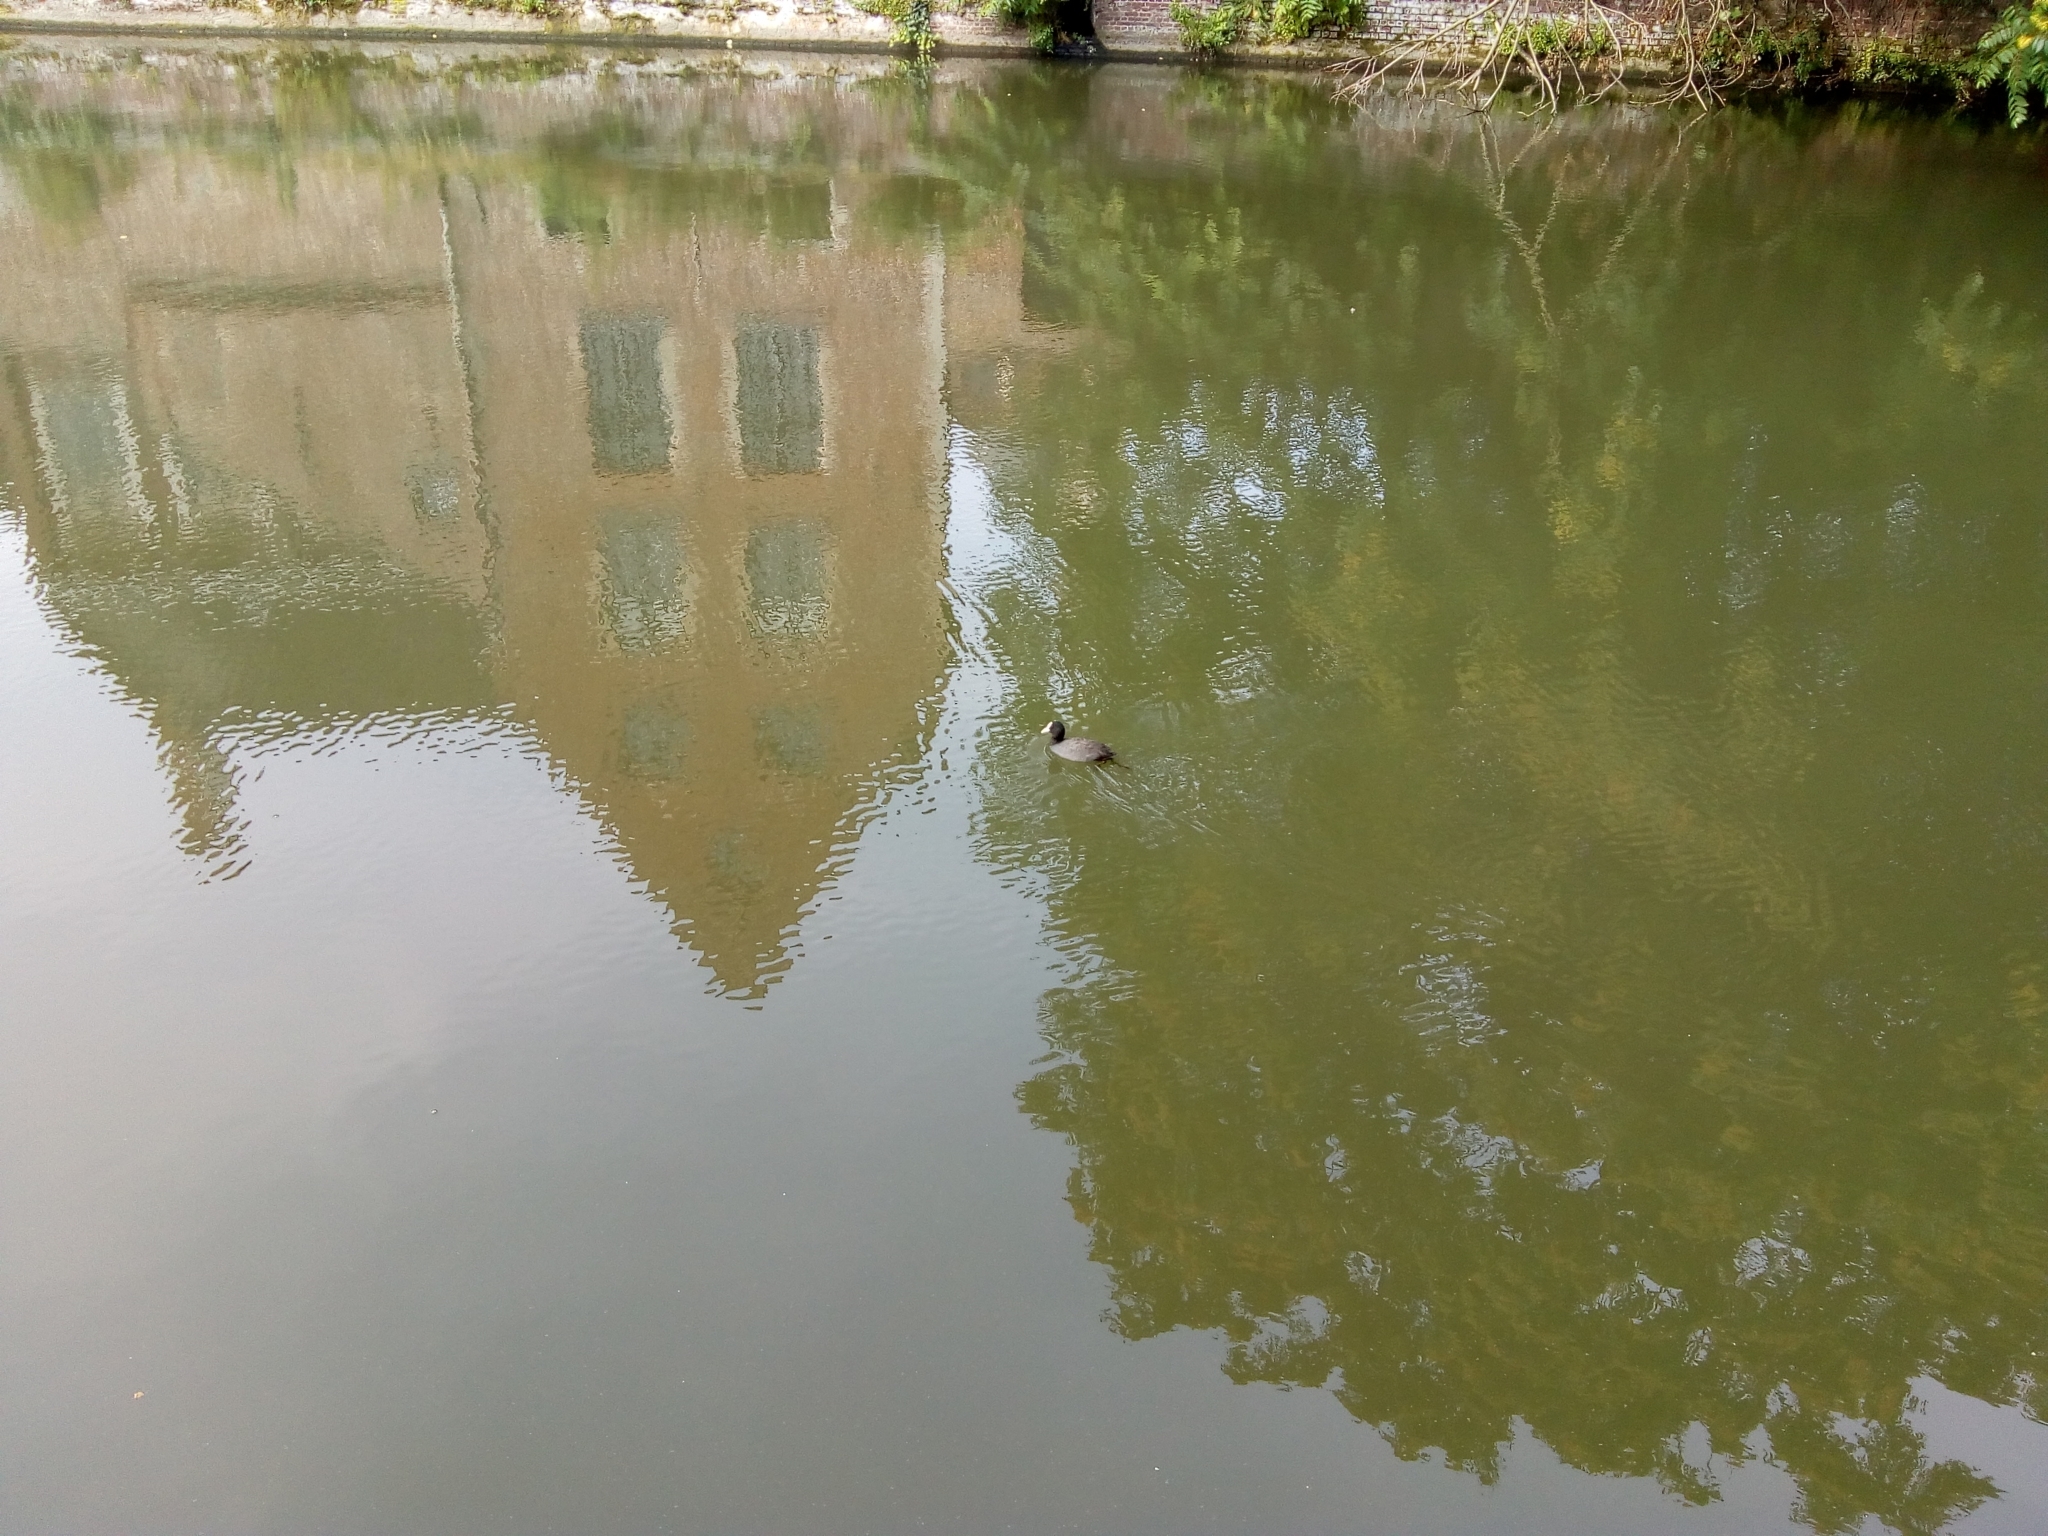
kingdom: Animalia
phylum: Chordata
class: Aves
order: Gruiformes
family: Rallidae
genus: Fulica
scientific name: Fulica atra
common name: Eurasian coot
